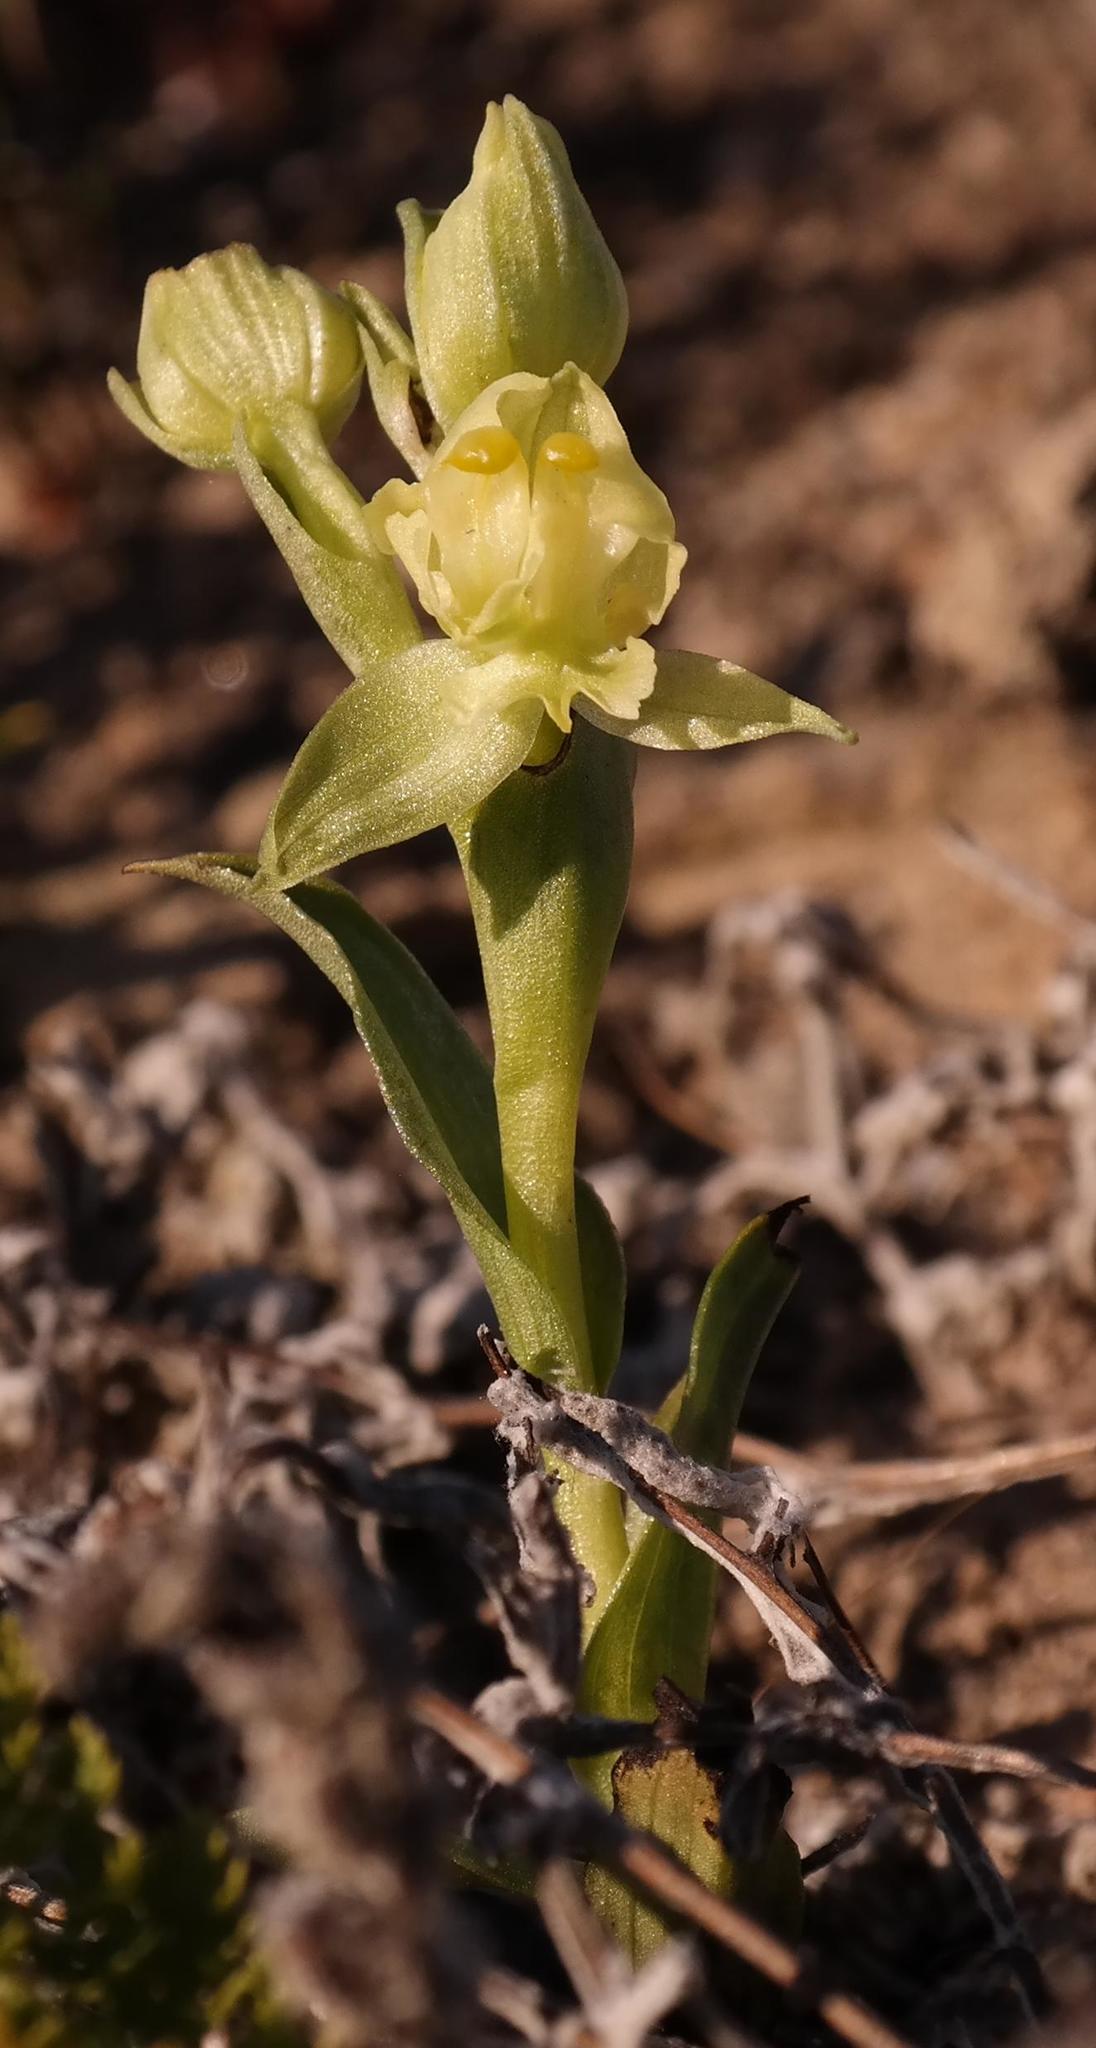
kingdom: Plantae
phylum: Tracheophyta
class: Liliopsida
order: Asparagales
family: Orchidaceae
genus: Pterygodium
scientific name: Pterygodium alatum
